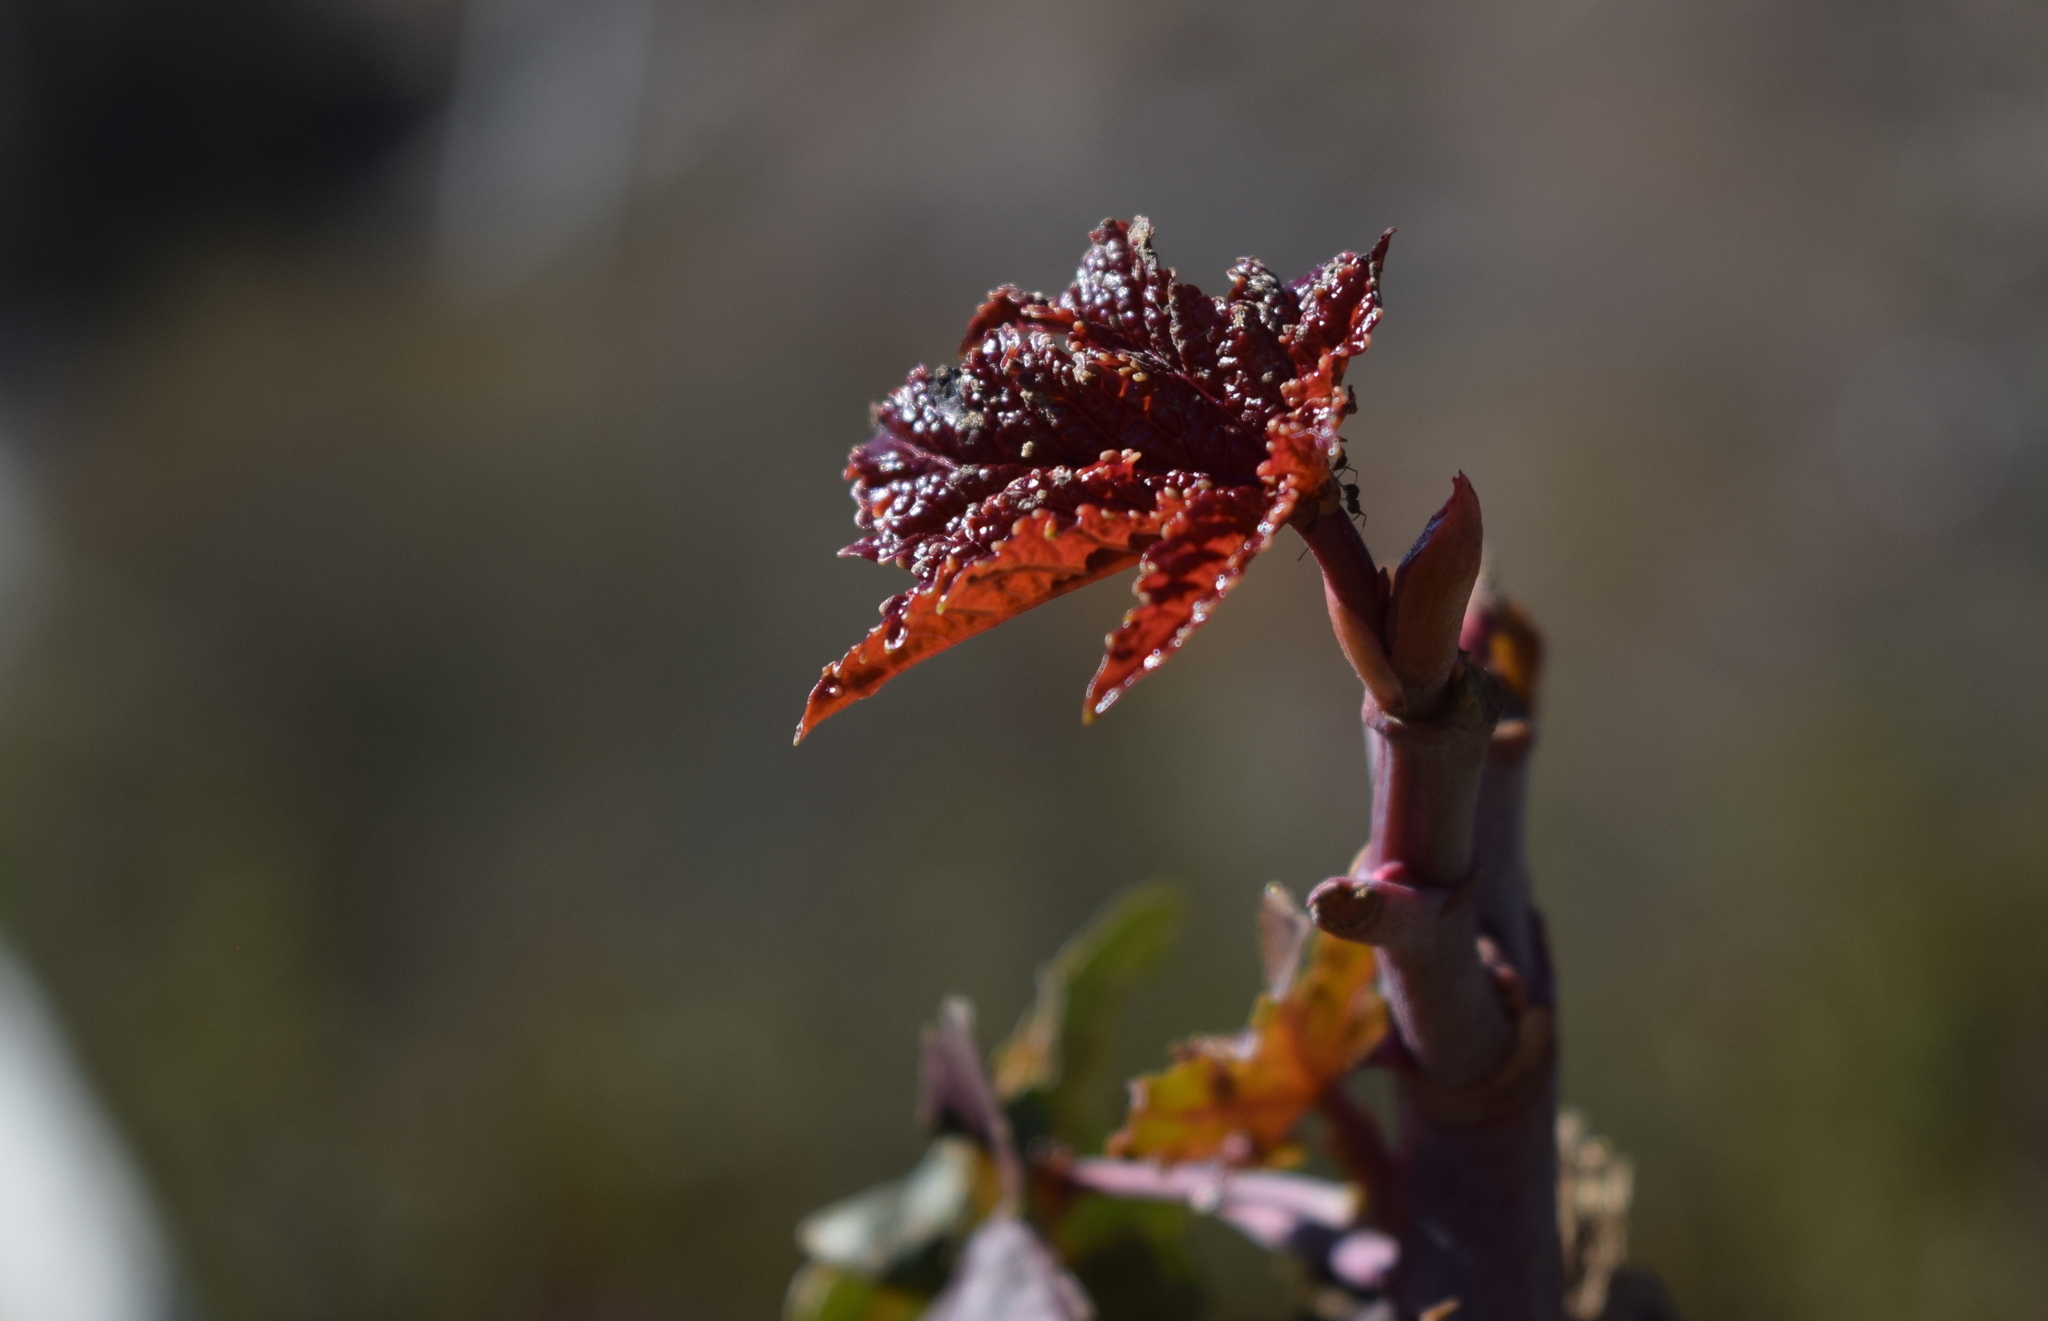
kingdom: Plantae
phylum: Tracheophyta
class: Magnoliopsida
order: Malpighiales
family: Euphorbiaceae
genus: Ricinus
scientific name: Ricinus communis
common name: Castor-oil-plant
